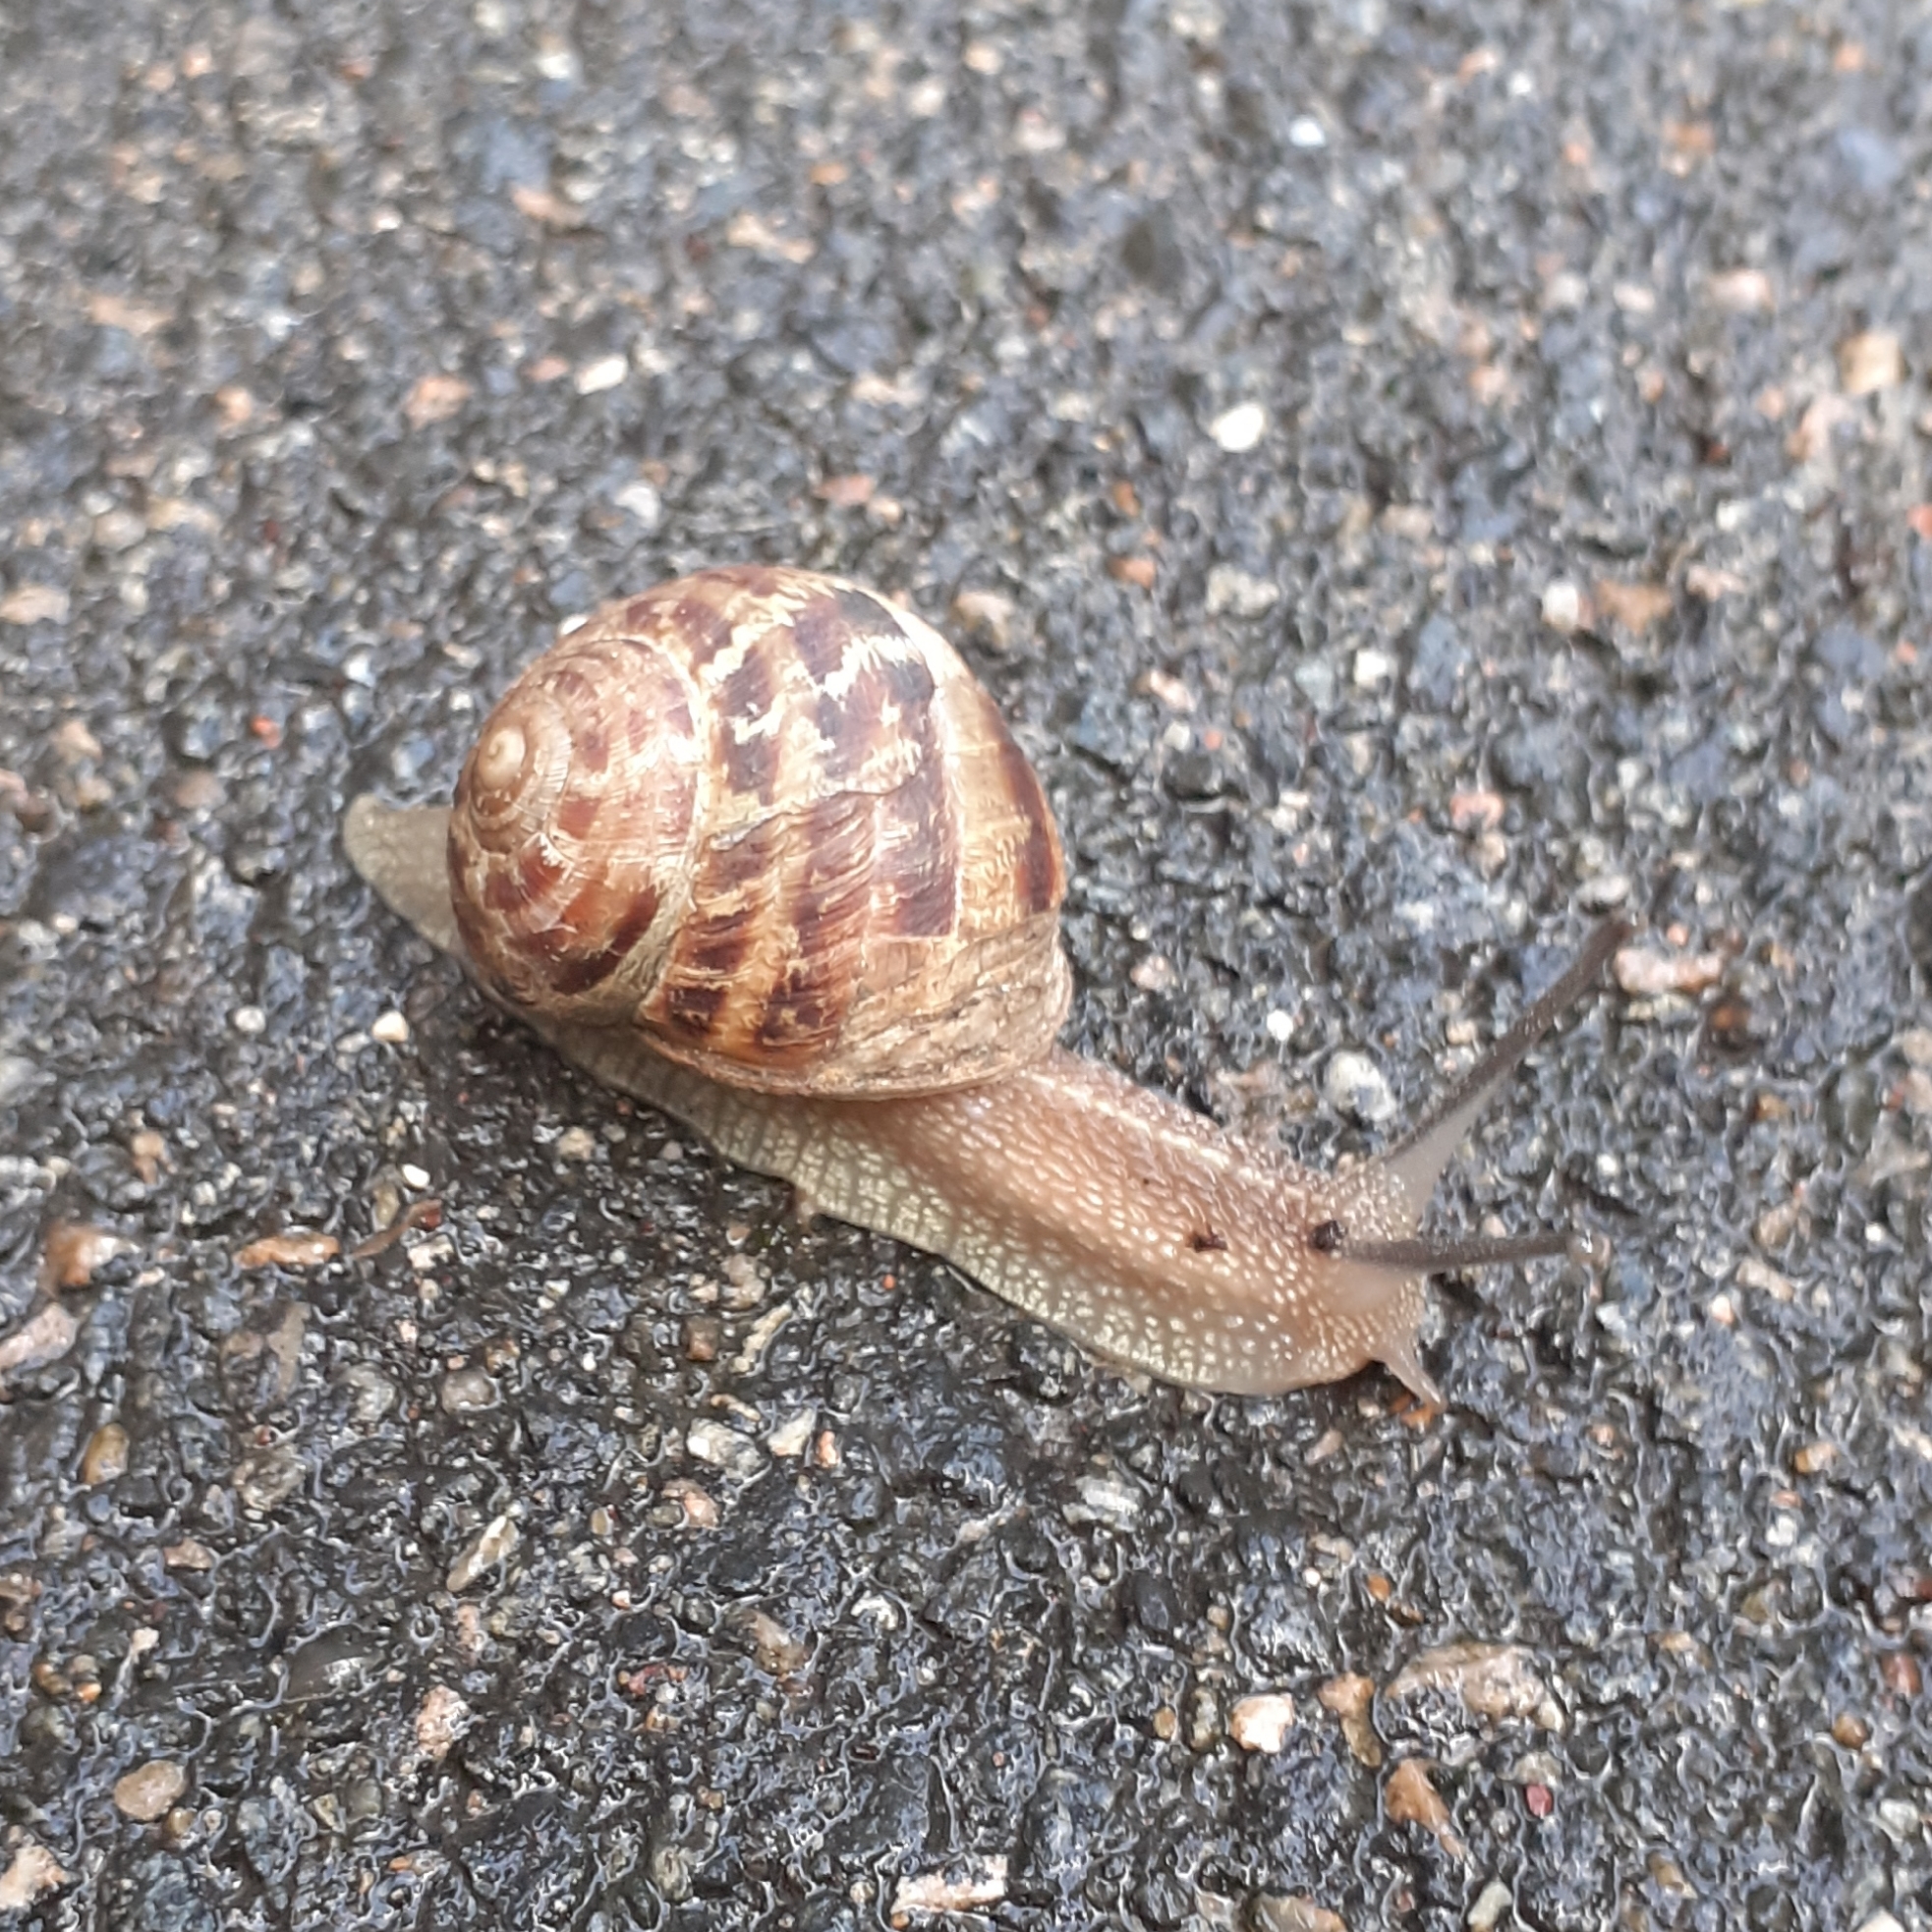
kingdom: Animalia
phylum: Mollusca
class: Gastropoda
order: Stylommatophora
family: Helicidae
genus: Cornu
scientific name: Cornu aspersum
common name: Brown garden snail
